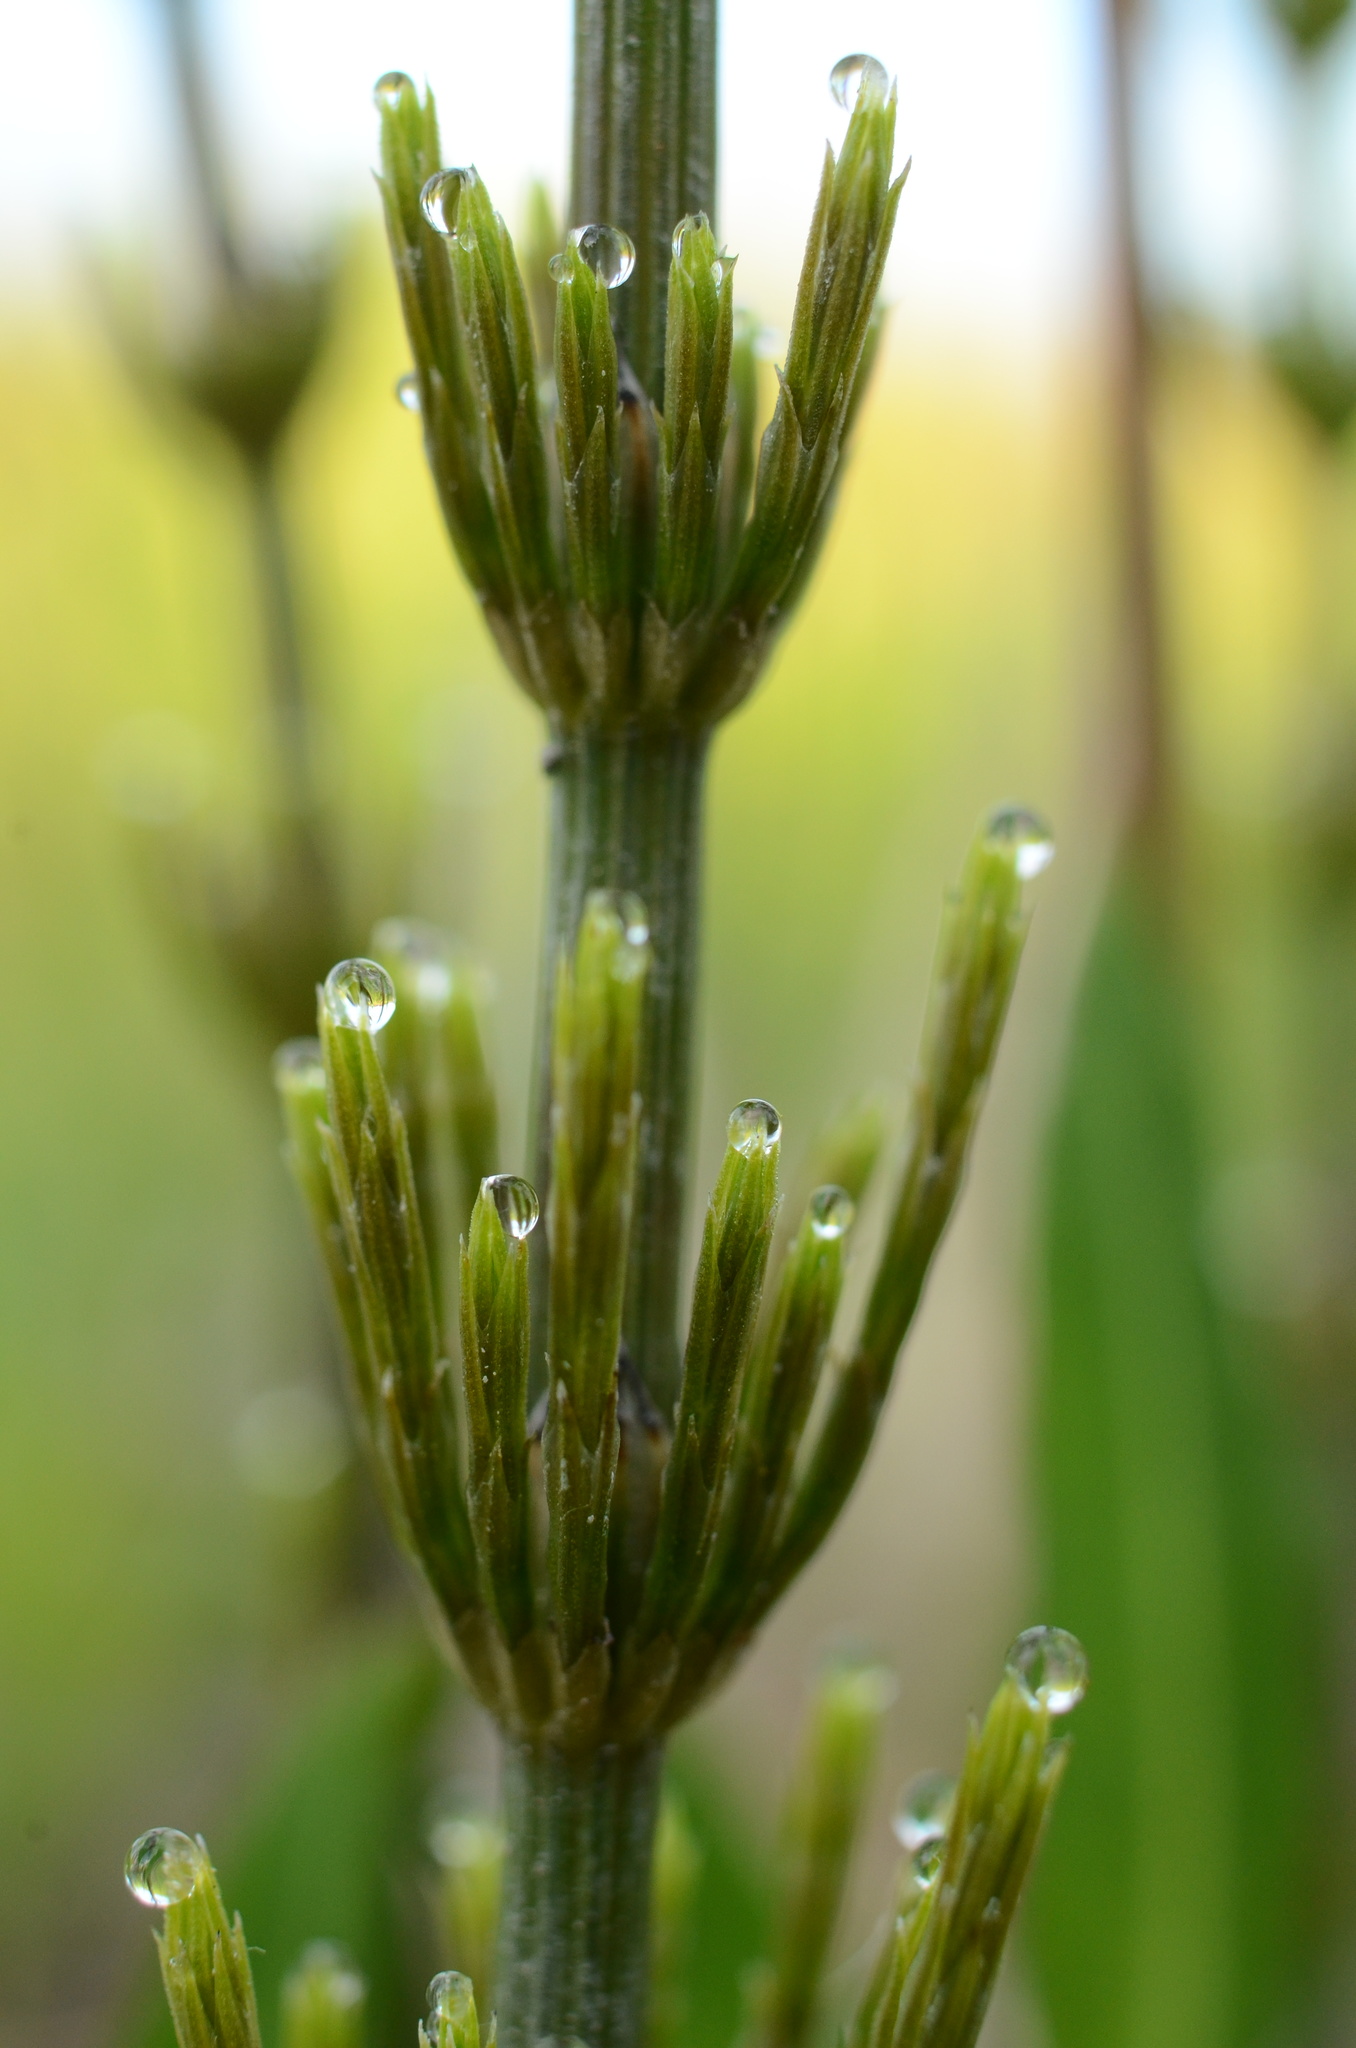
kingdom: Plantae
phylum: Tracheophyta
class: Polypodiopsida
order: Equisetales
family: Equisetaceae
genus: Equisetum
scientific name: Equisetum arvense
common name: Field horsetail
